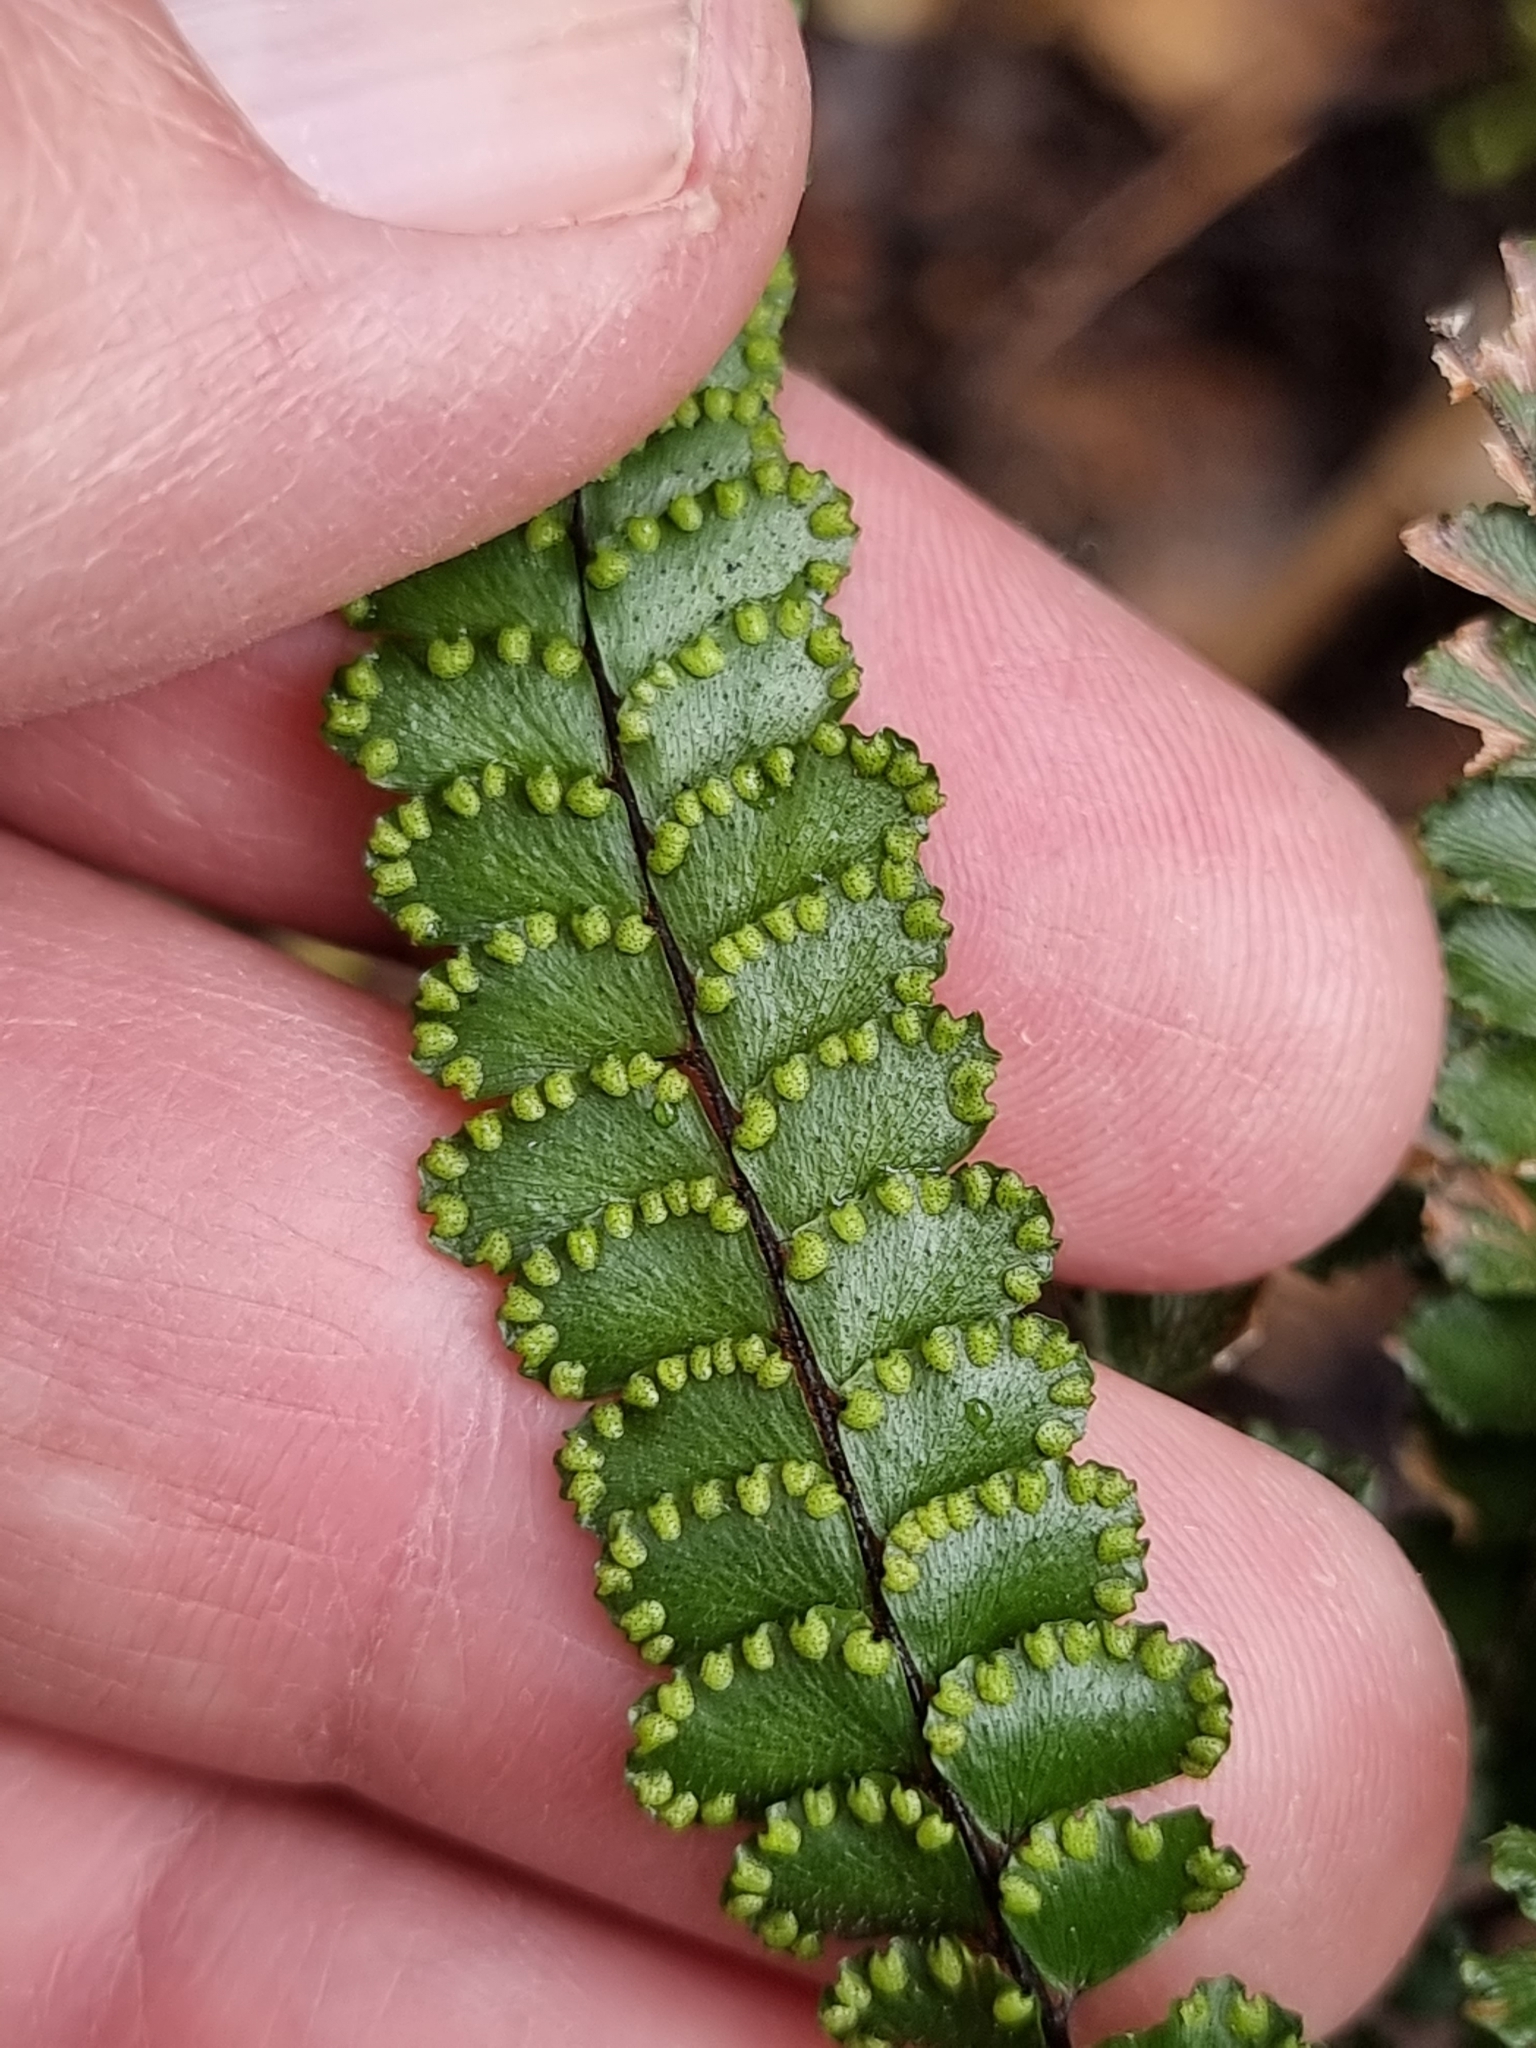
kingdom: Plantae
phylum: Tracheophyta
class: Polypodiopsida
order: Polypodiales
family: Pteridaceae
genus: Adiantum
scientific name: Adiantum hispidulum
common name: Rough maidenhair
